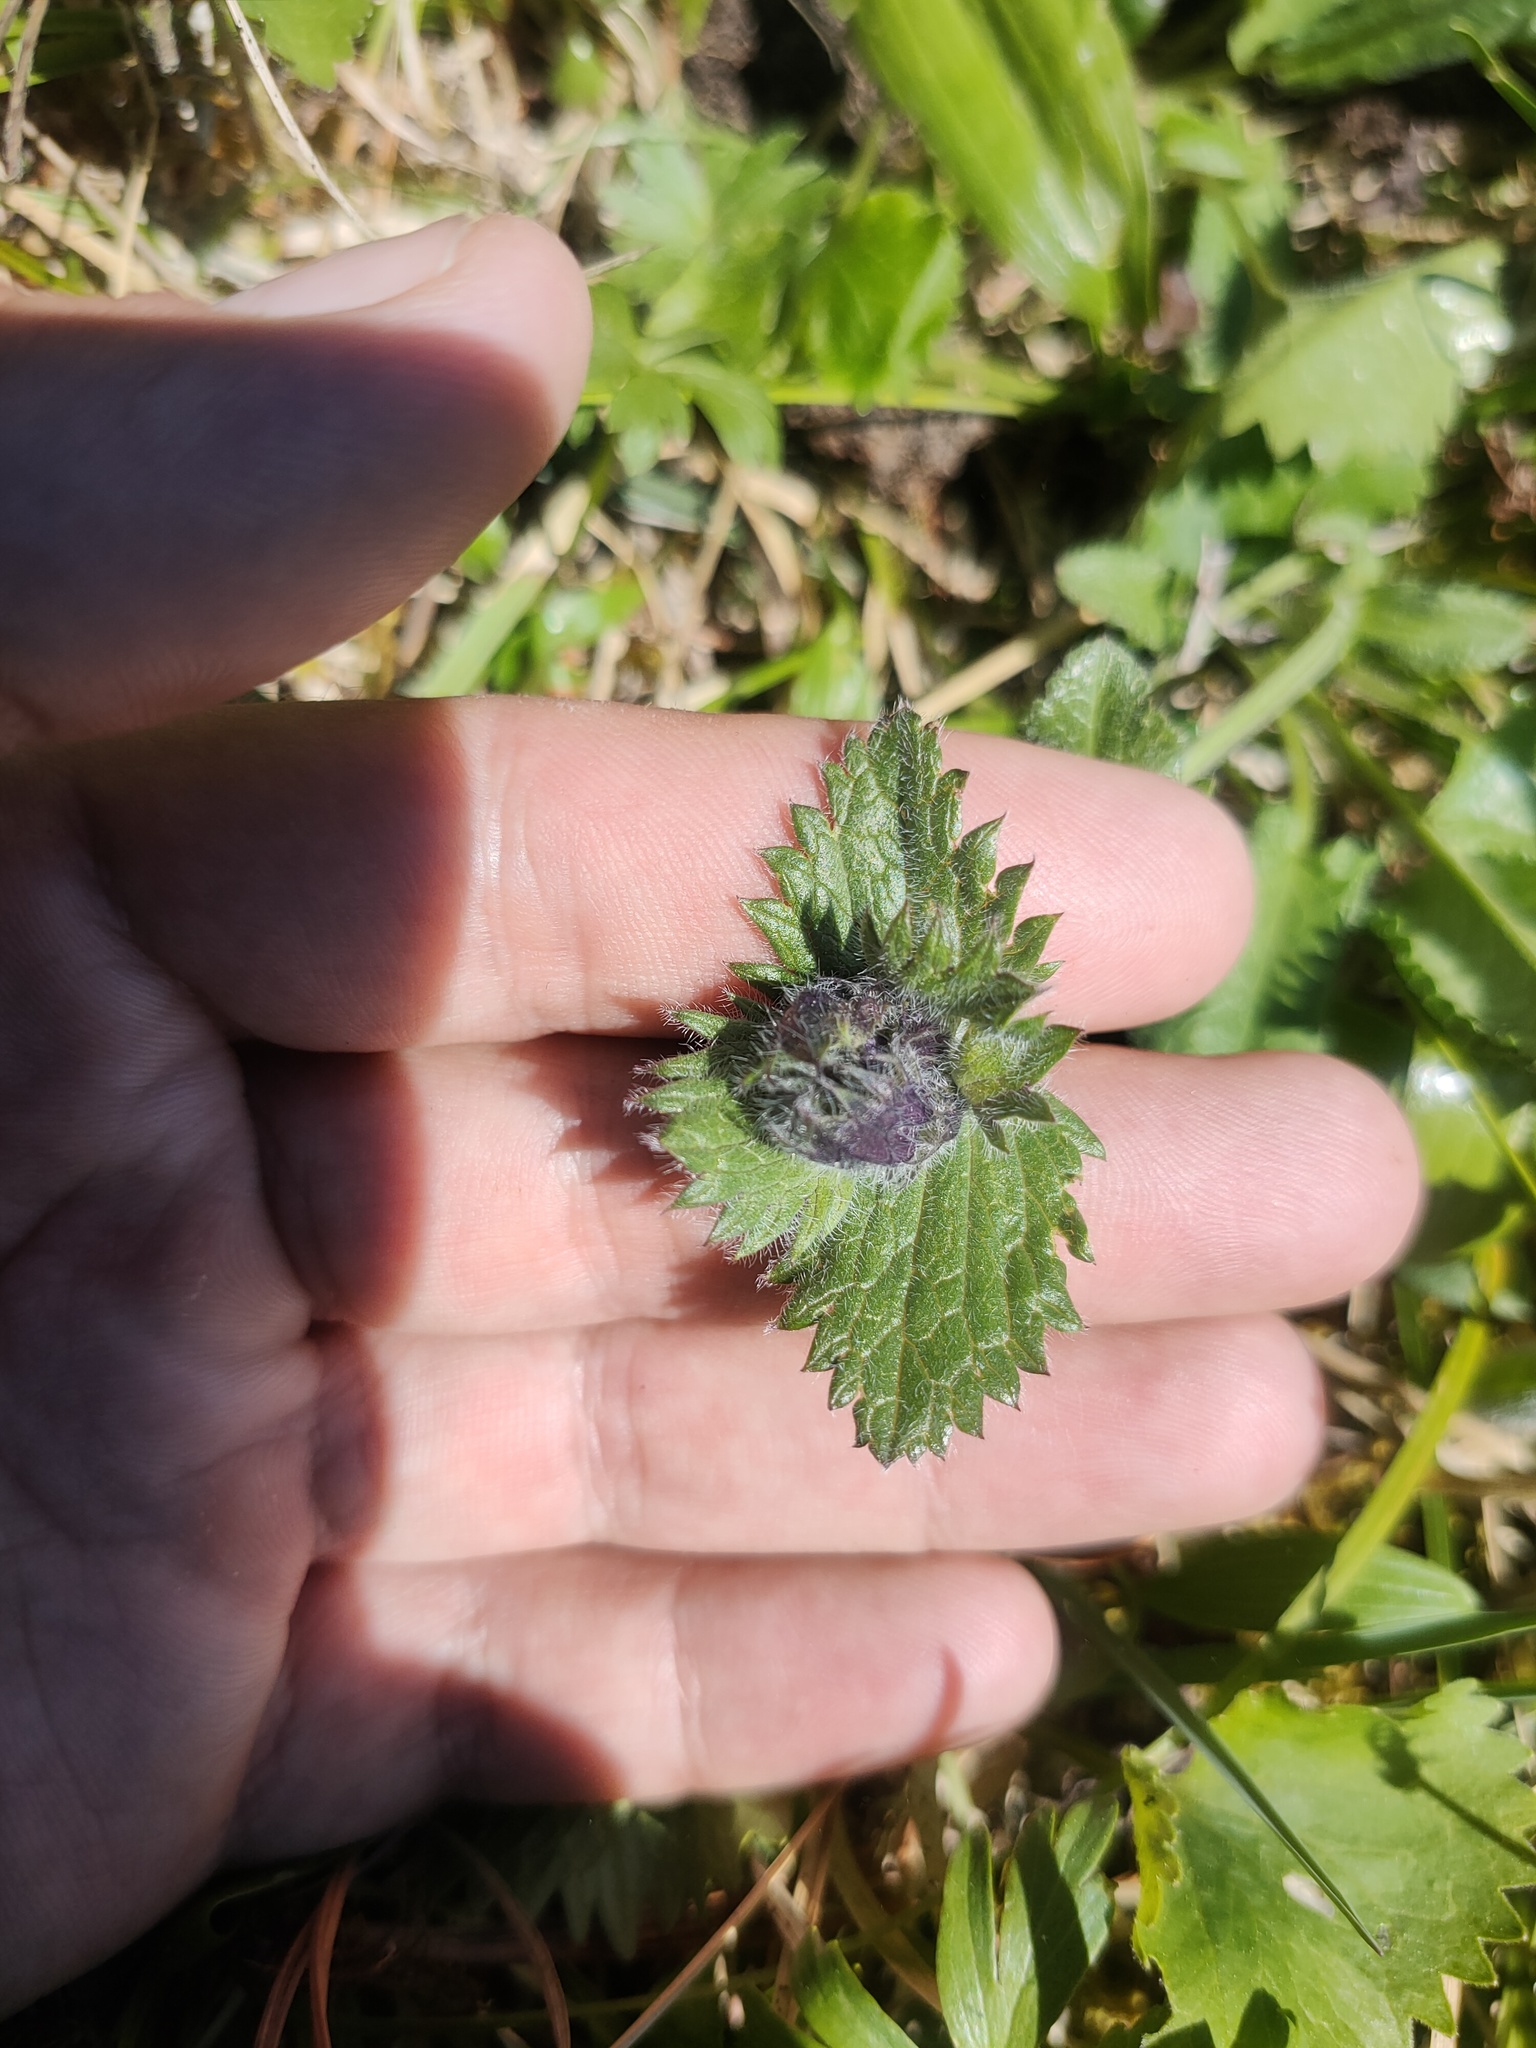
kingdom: Plantae
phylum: Tracheophyta
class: Magnoliopsida
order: Lamiales
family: Lamiaceae
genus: Dracocephalum
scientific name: Dracocephalum grandiflorum
